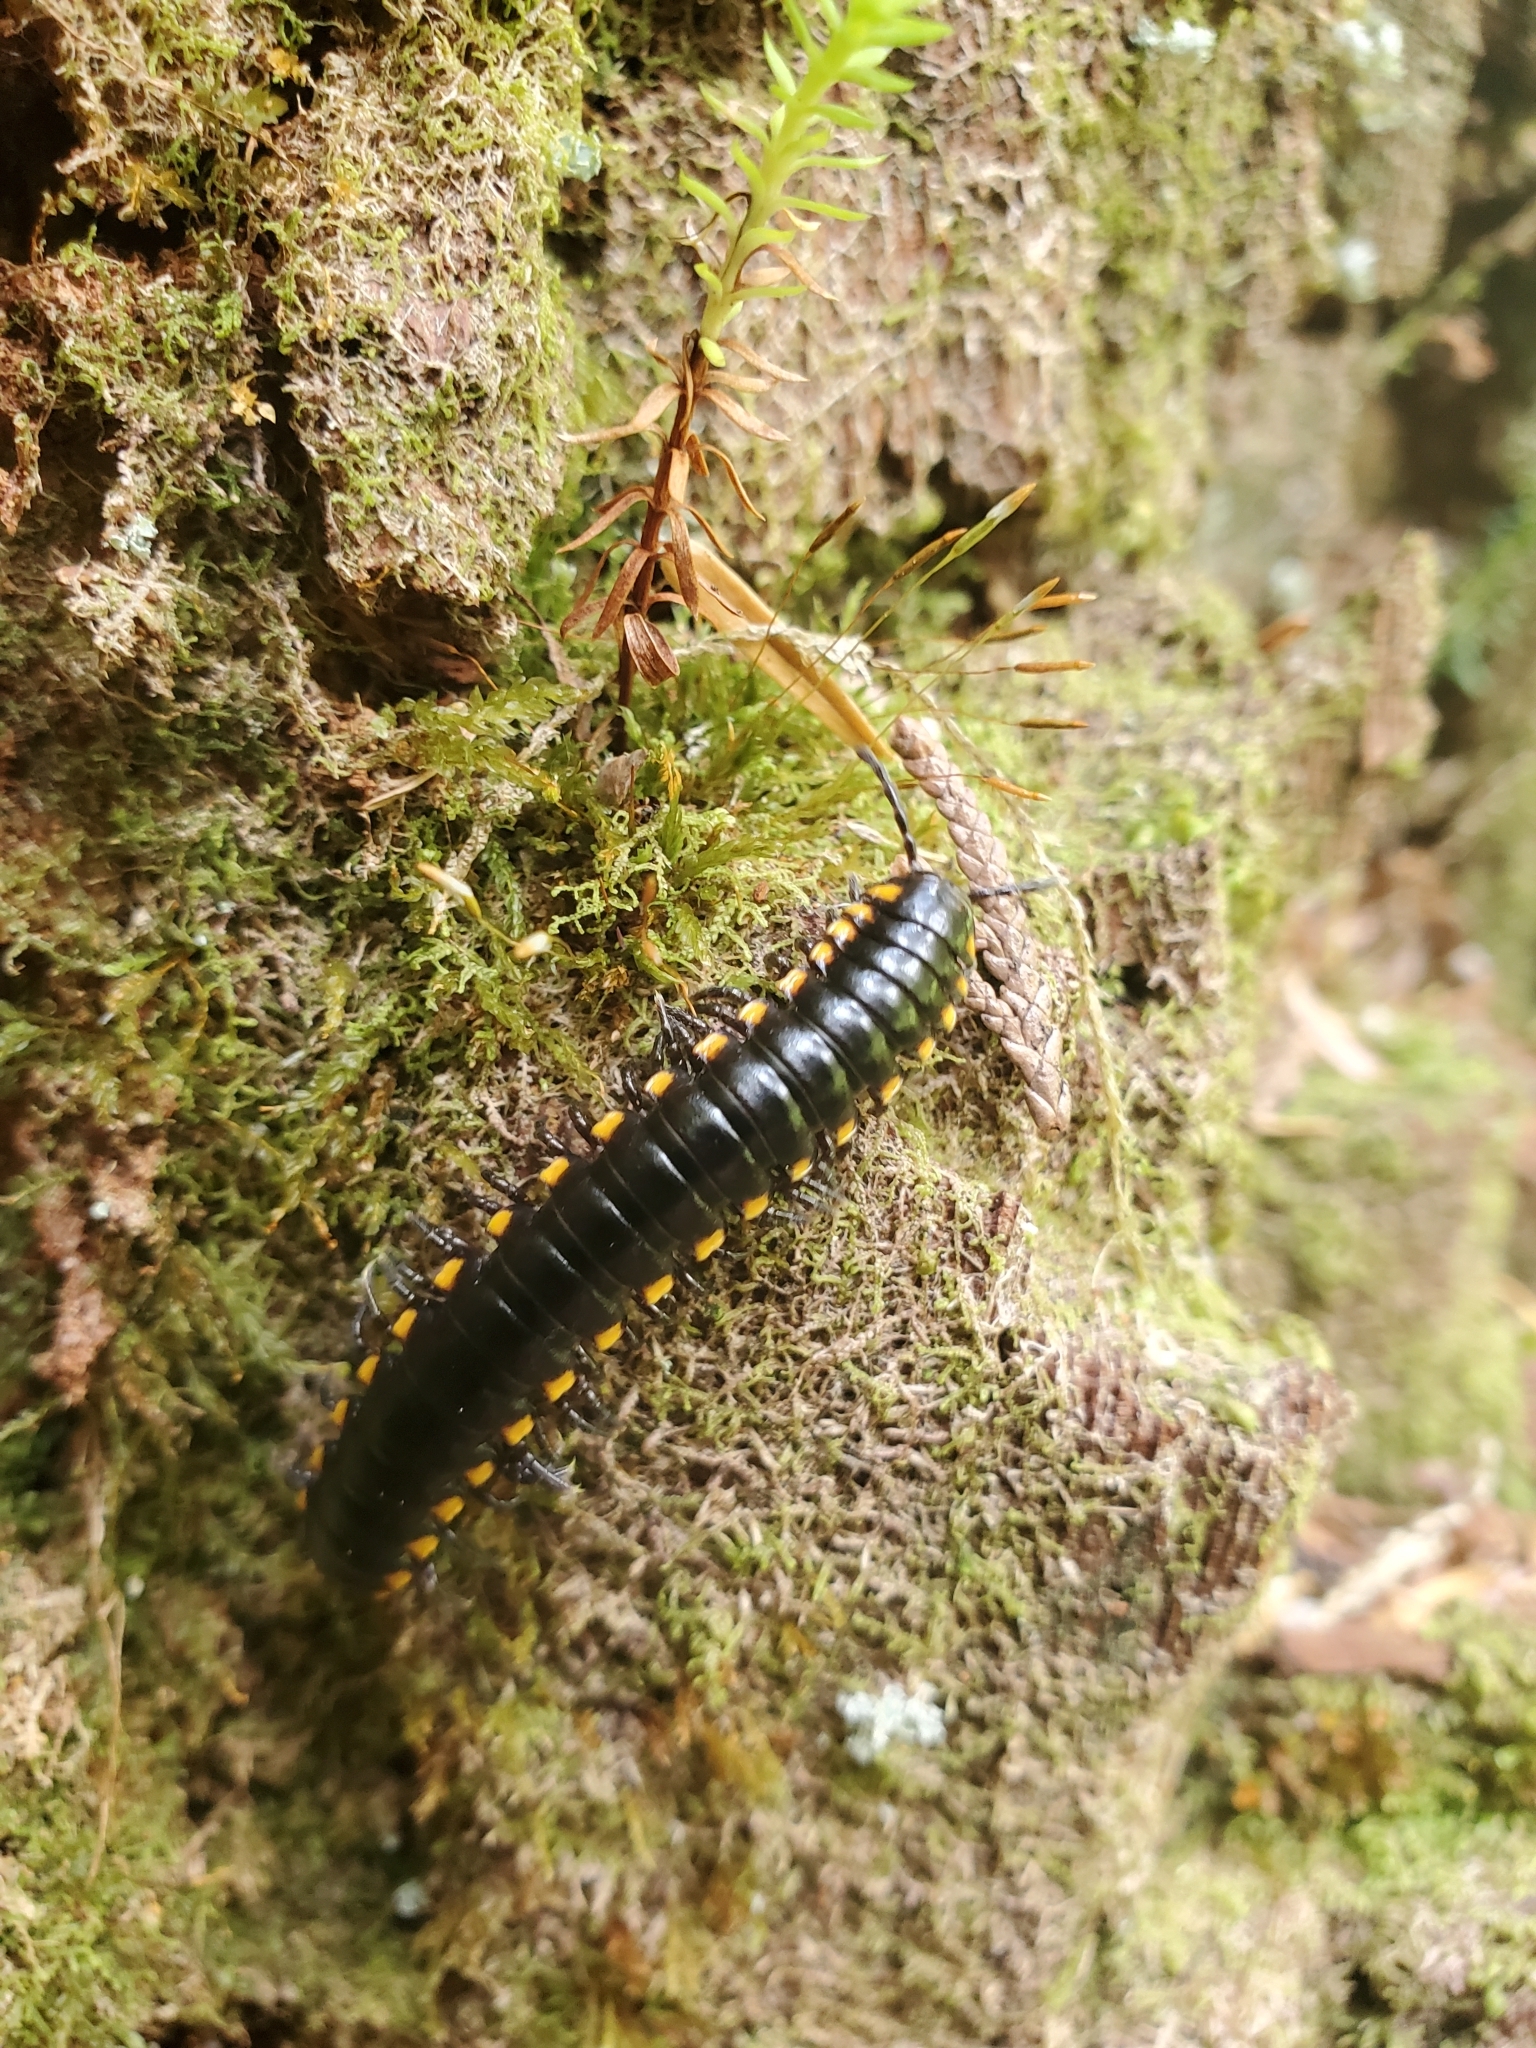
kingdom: Animalia
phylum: Arthropoda
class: Diplopoda
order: Polydesmida
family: Xystodesmidae
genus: Harpaphe
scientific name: Harpaphe haydeniana
